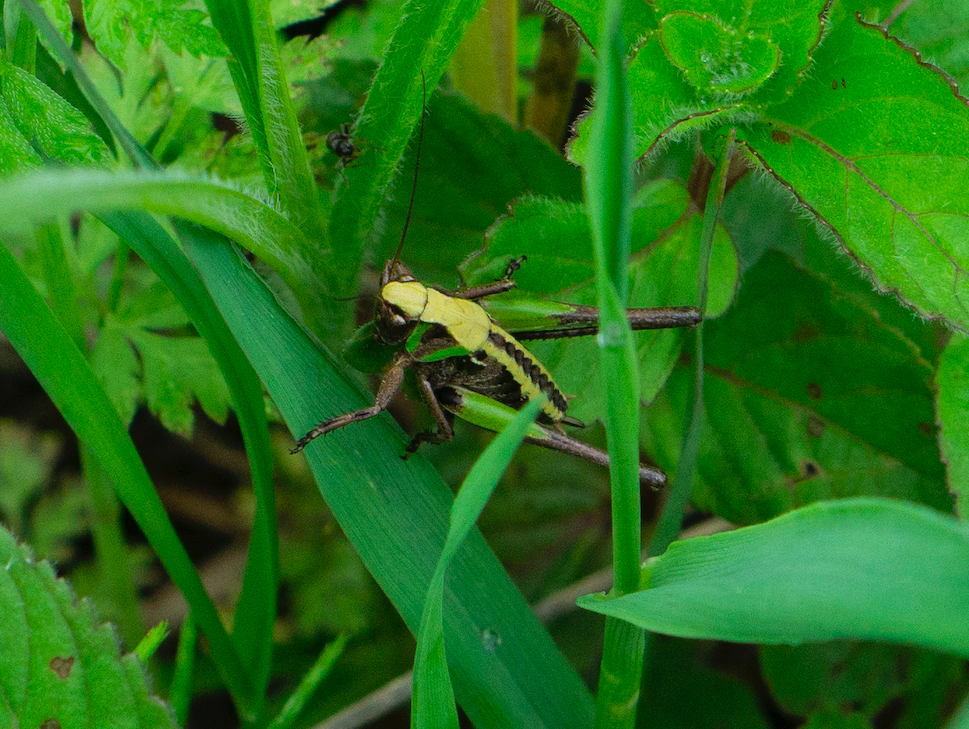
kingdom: Animalia
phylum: Arthropoda
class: Insecta
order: Orthoptera
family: Tettigoniidae
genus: Decticus
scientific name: Decticus verrucivorus
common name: Wart-biter
